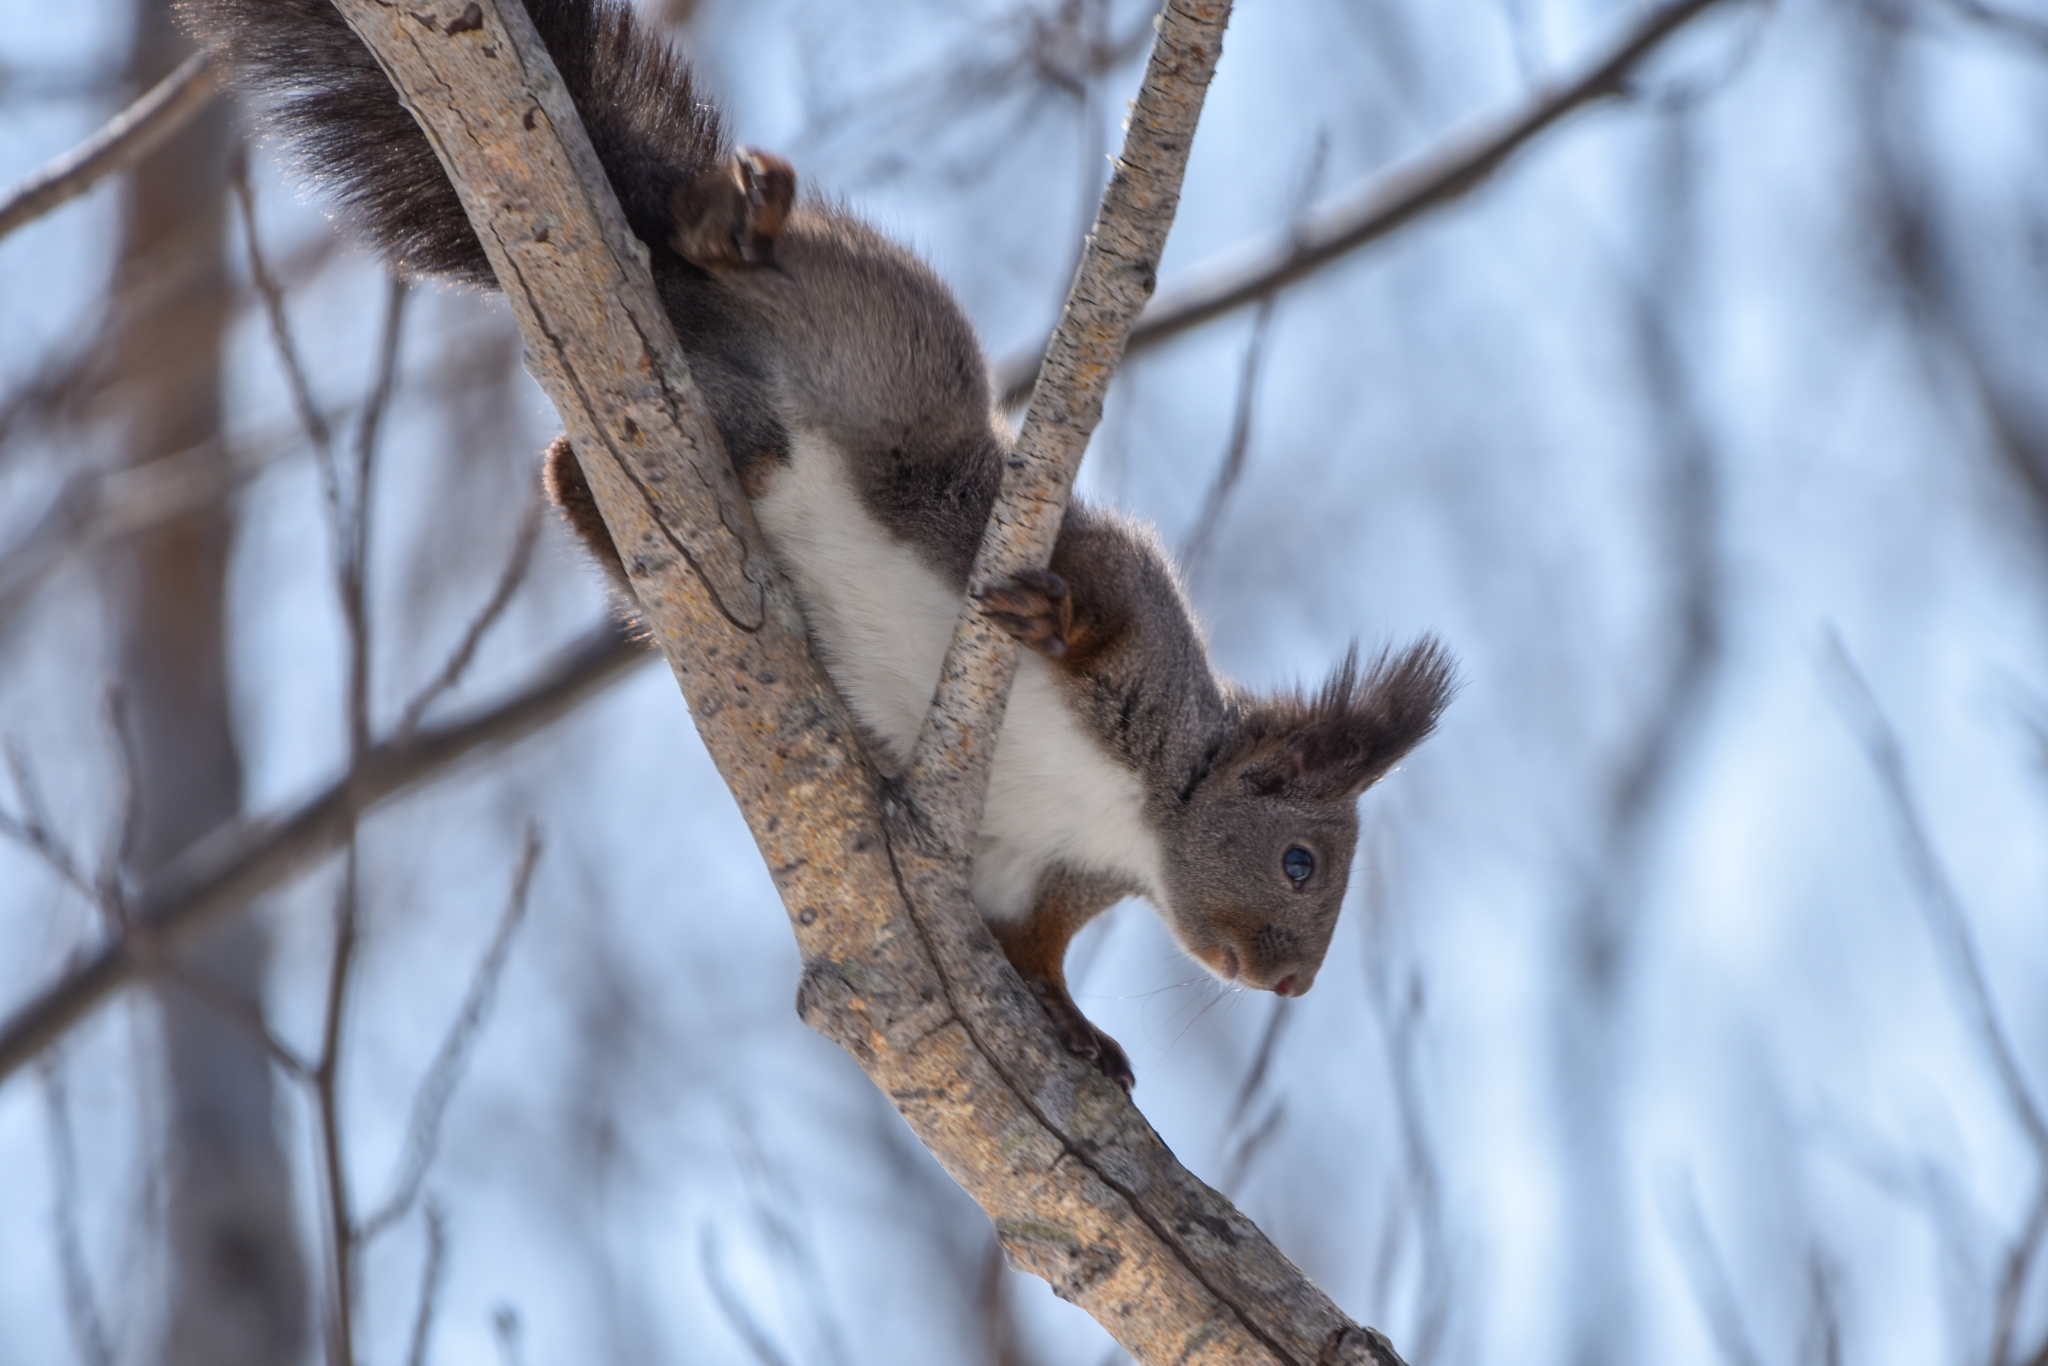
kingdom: Animalia
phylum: Chordata
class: Mammalia
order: Rodentia
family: Sciuridae
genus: Sciurus
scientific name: Sciurus vulgaris
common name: Eurasian red squirrel
